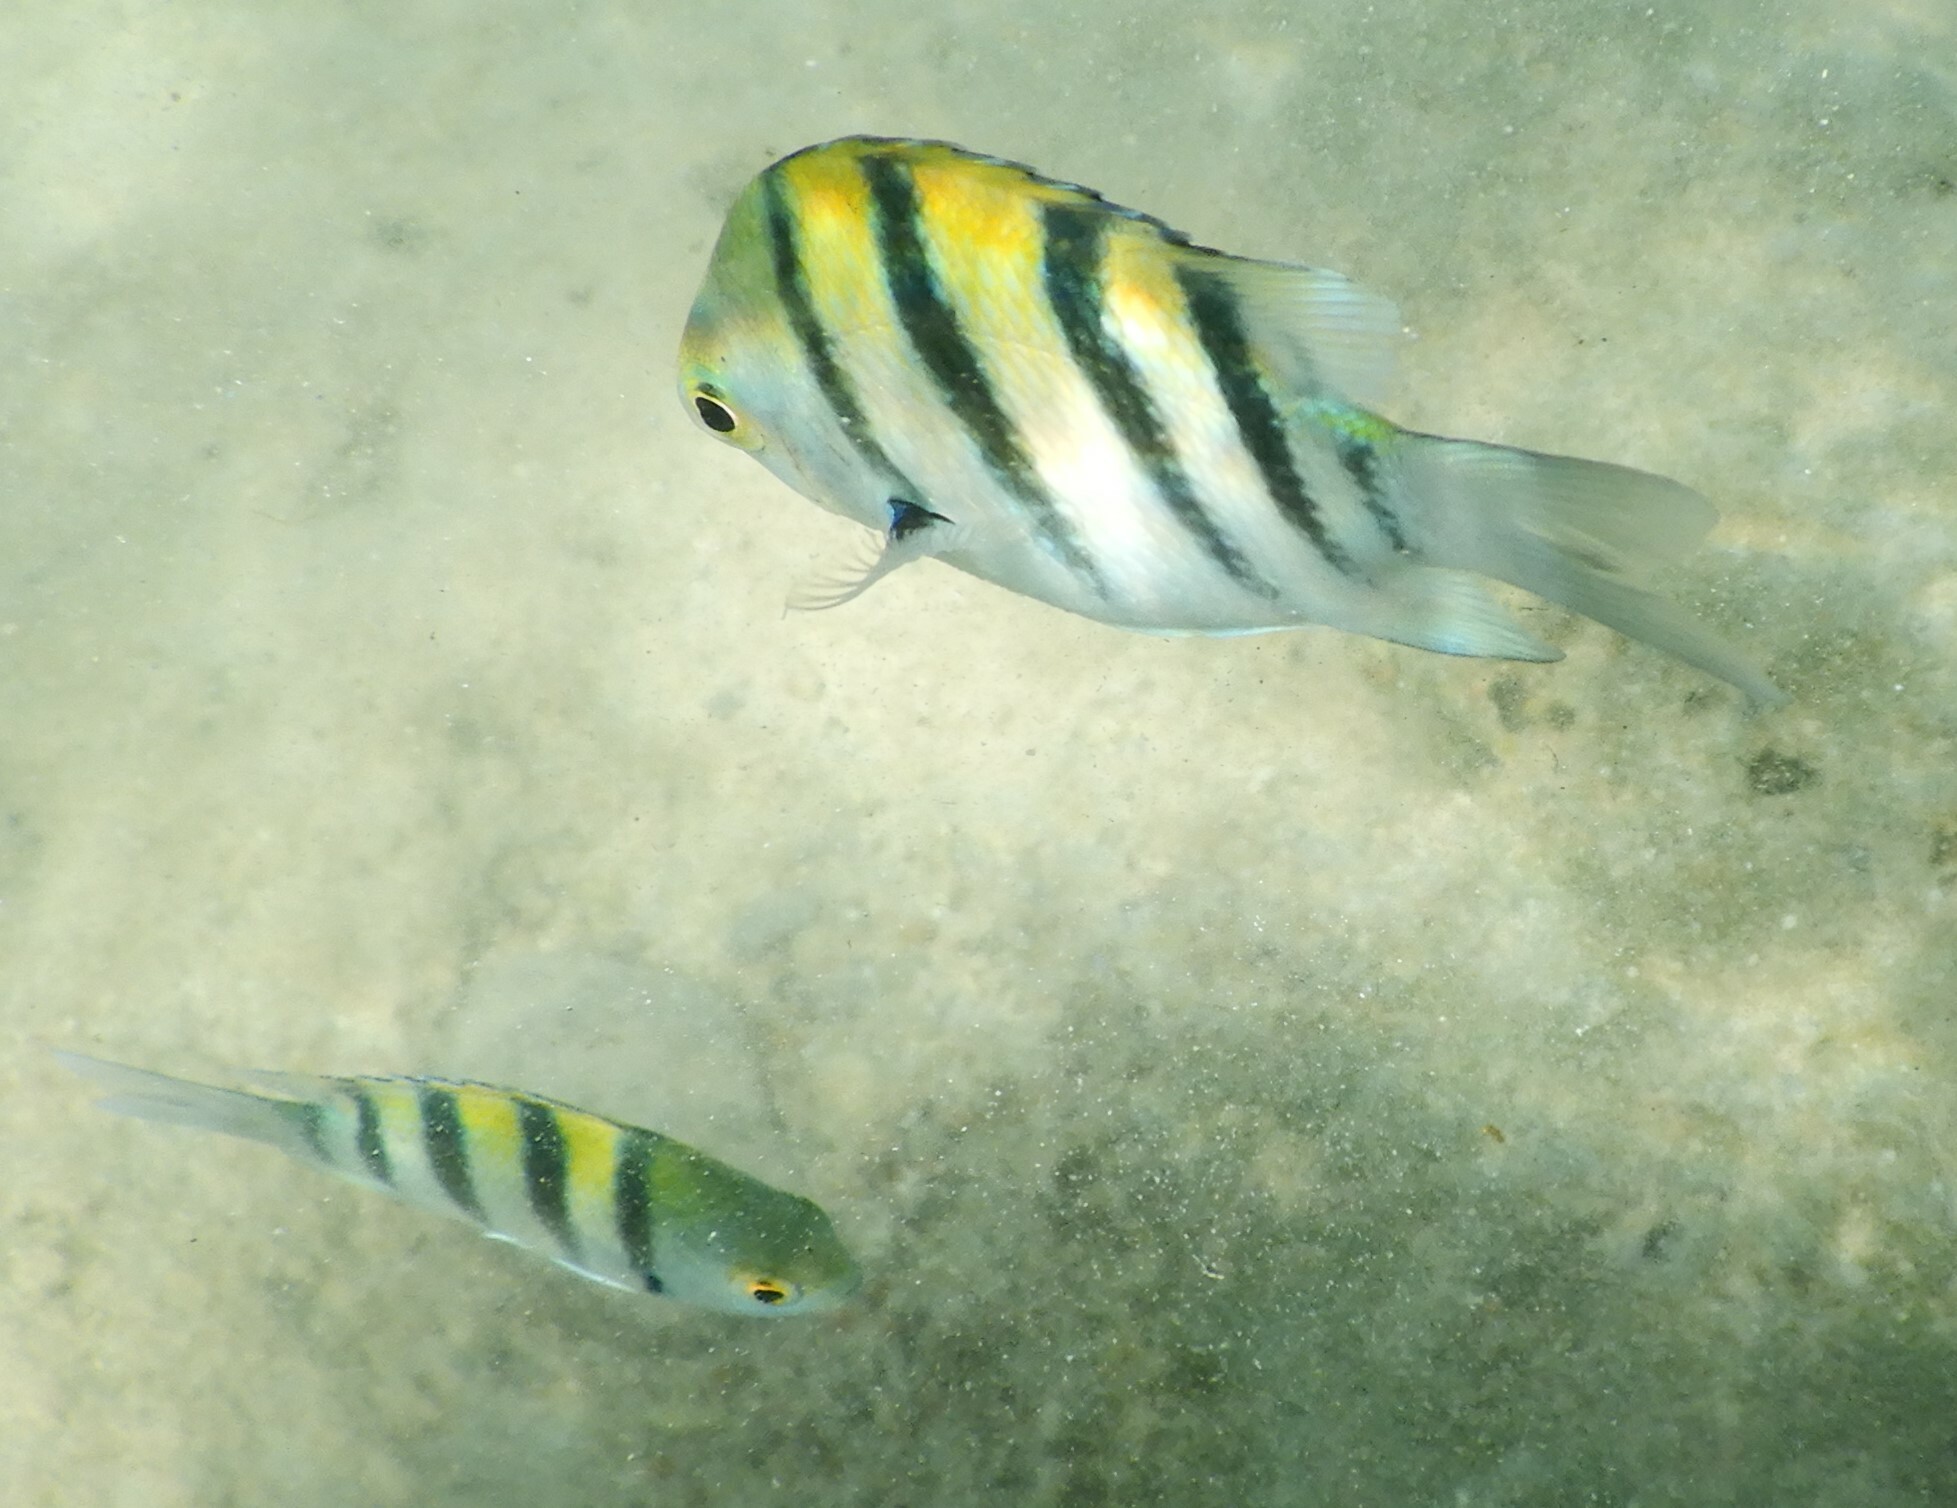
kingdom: Animalia
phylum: Chordata
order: Perciformes
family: Pomacentridae
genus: Abudefduf
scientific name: Abudefduf vaigiensis
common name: Indo-pacific sergeant
